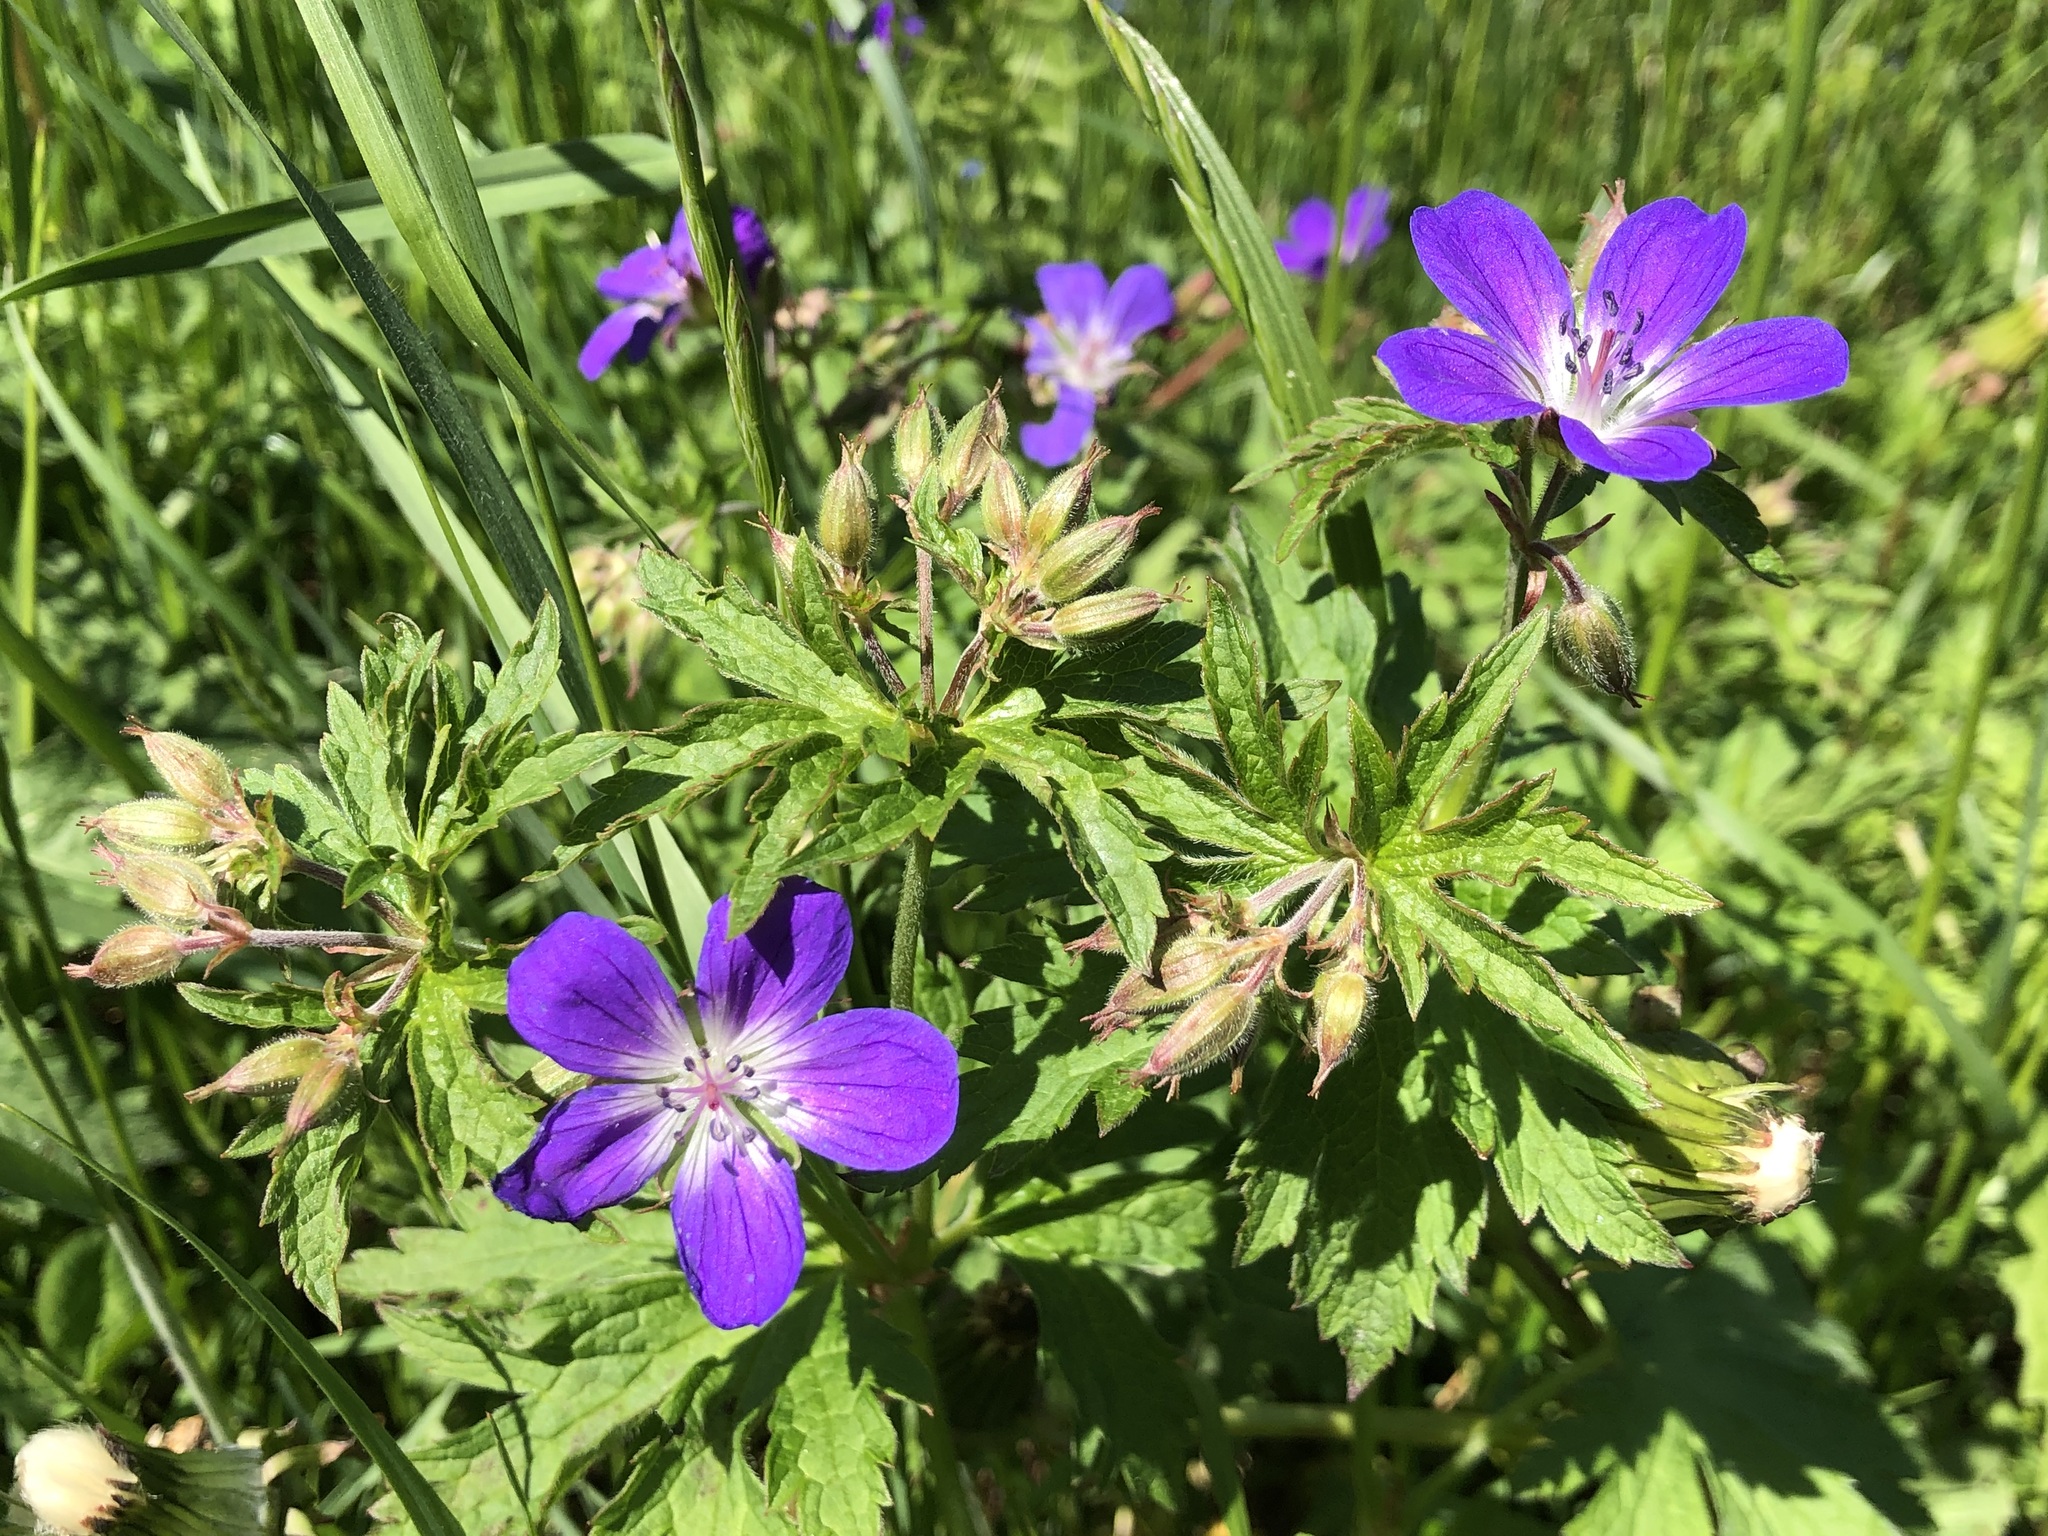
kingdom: Plantae
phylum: Tracheophyta
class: Magnoliopsida
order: Geraniales
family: Geraniaceae
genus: Geranium
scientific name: Geranium sylvaticum
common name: Wood crane's-bill
